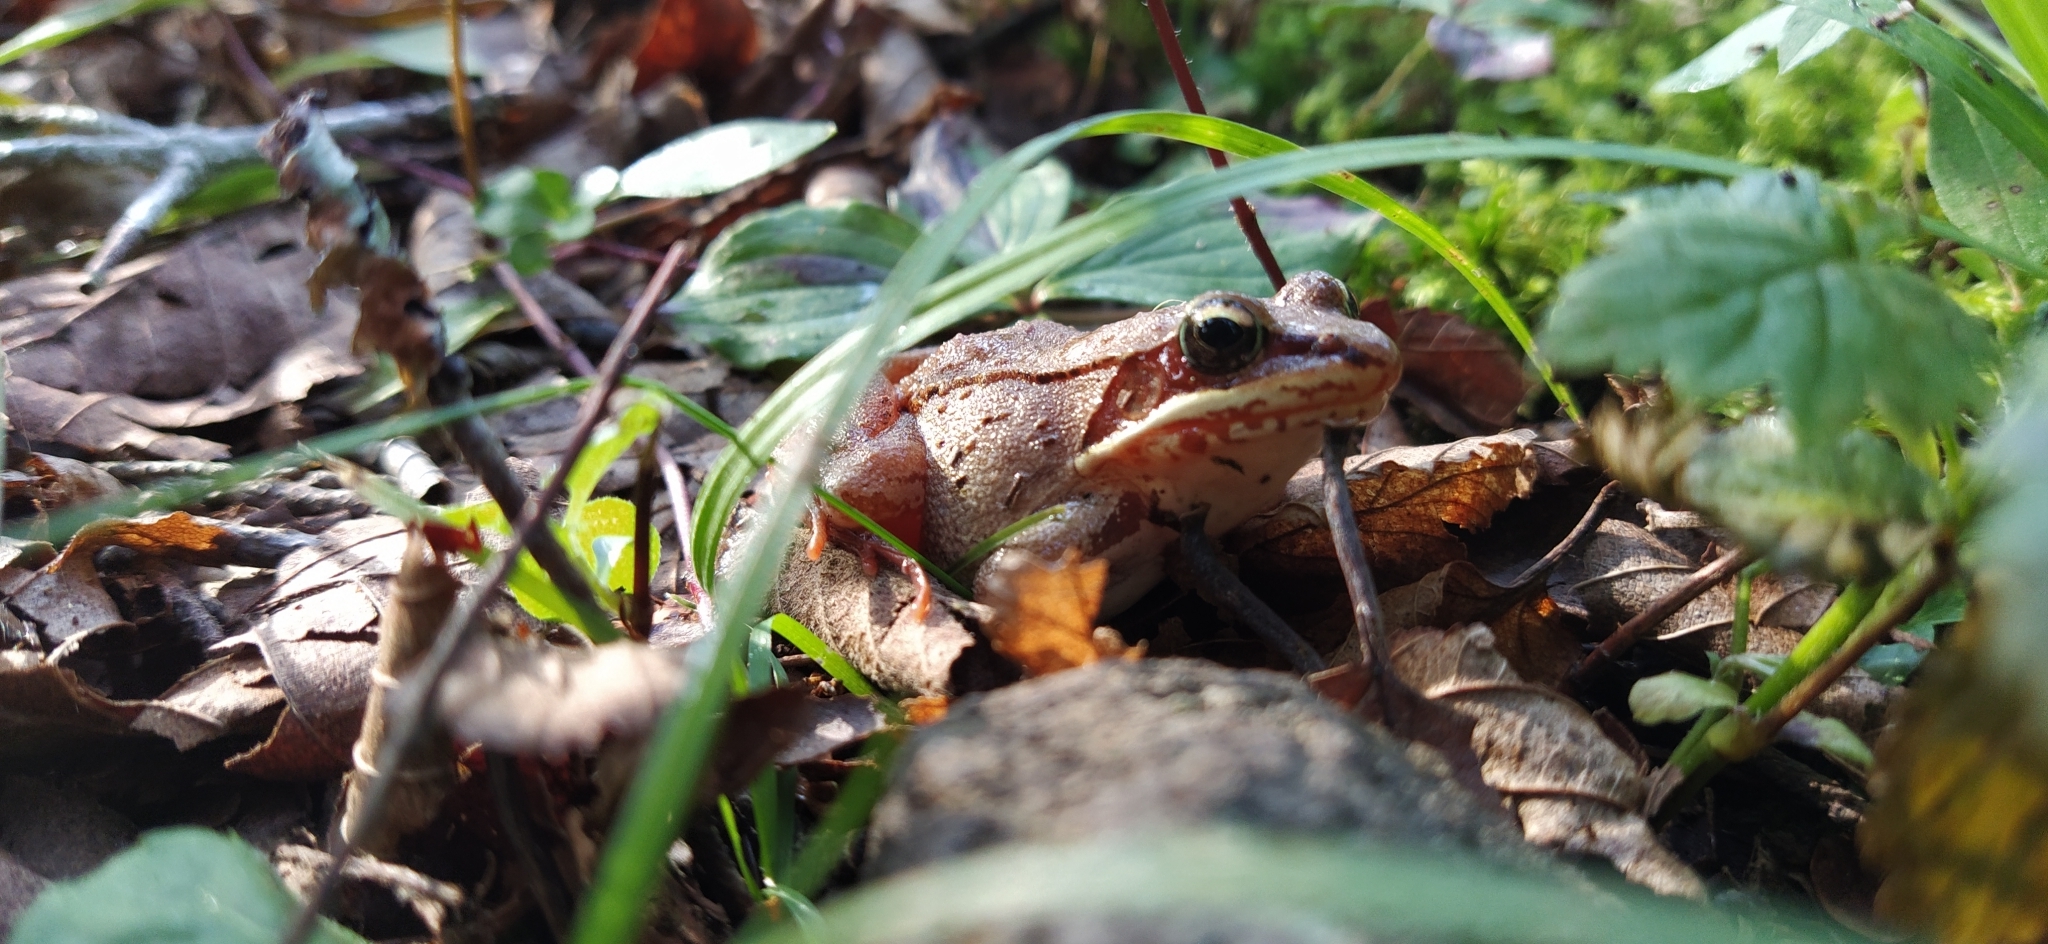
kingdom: Animalia
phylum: Chordata
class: Amphibia
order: Anura
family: Ranidae
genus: Lithobates
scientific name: Lithobates sylvaticus
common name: Wood frog
